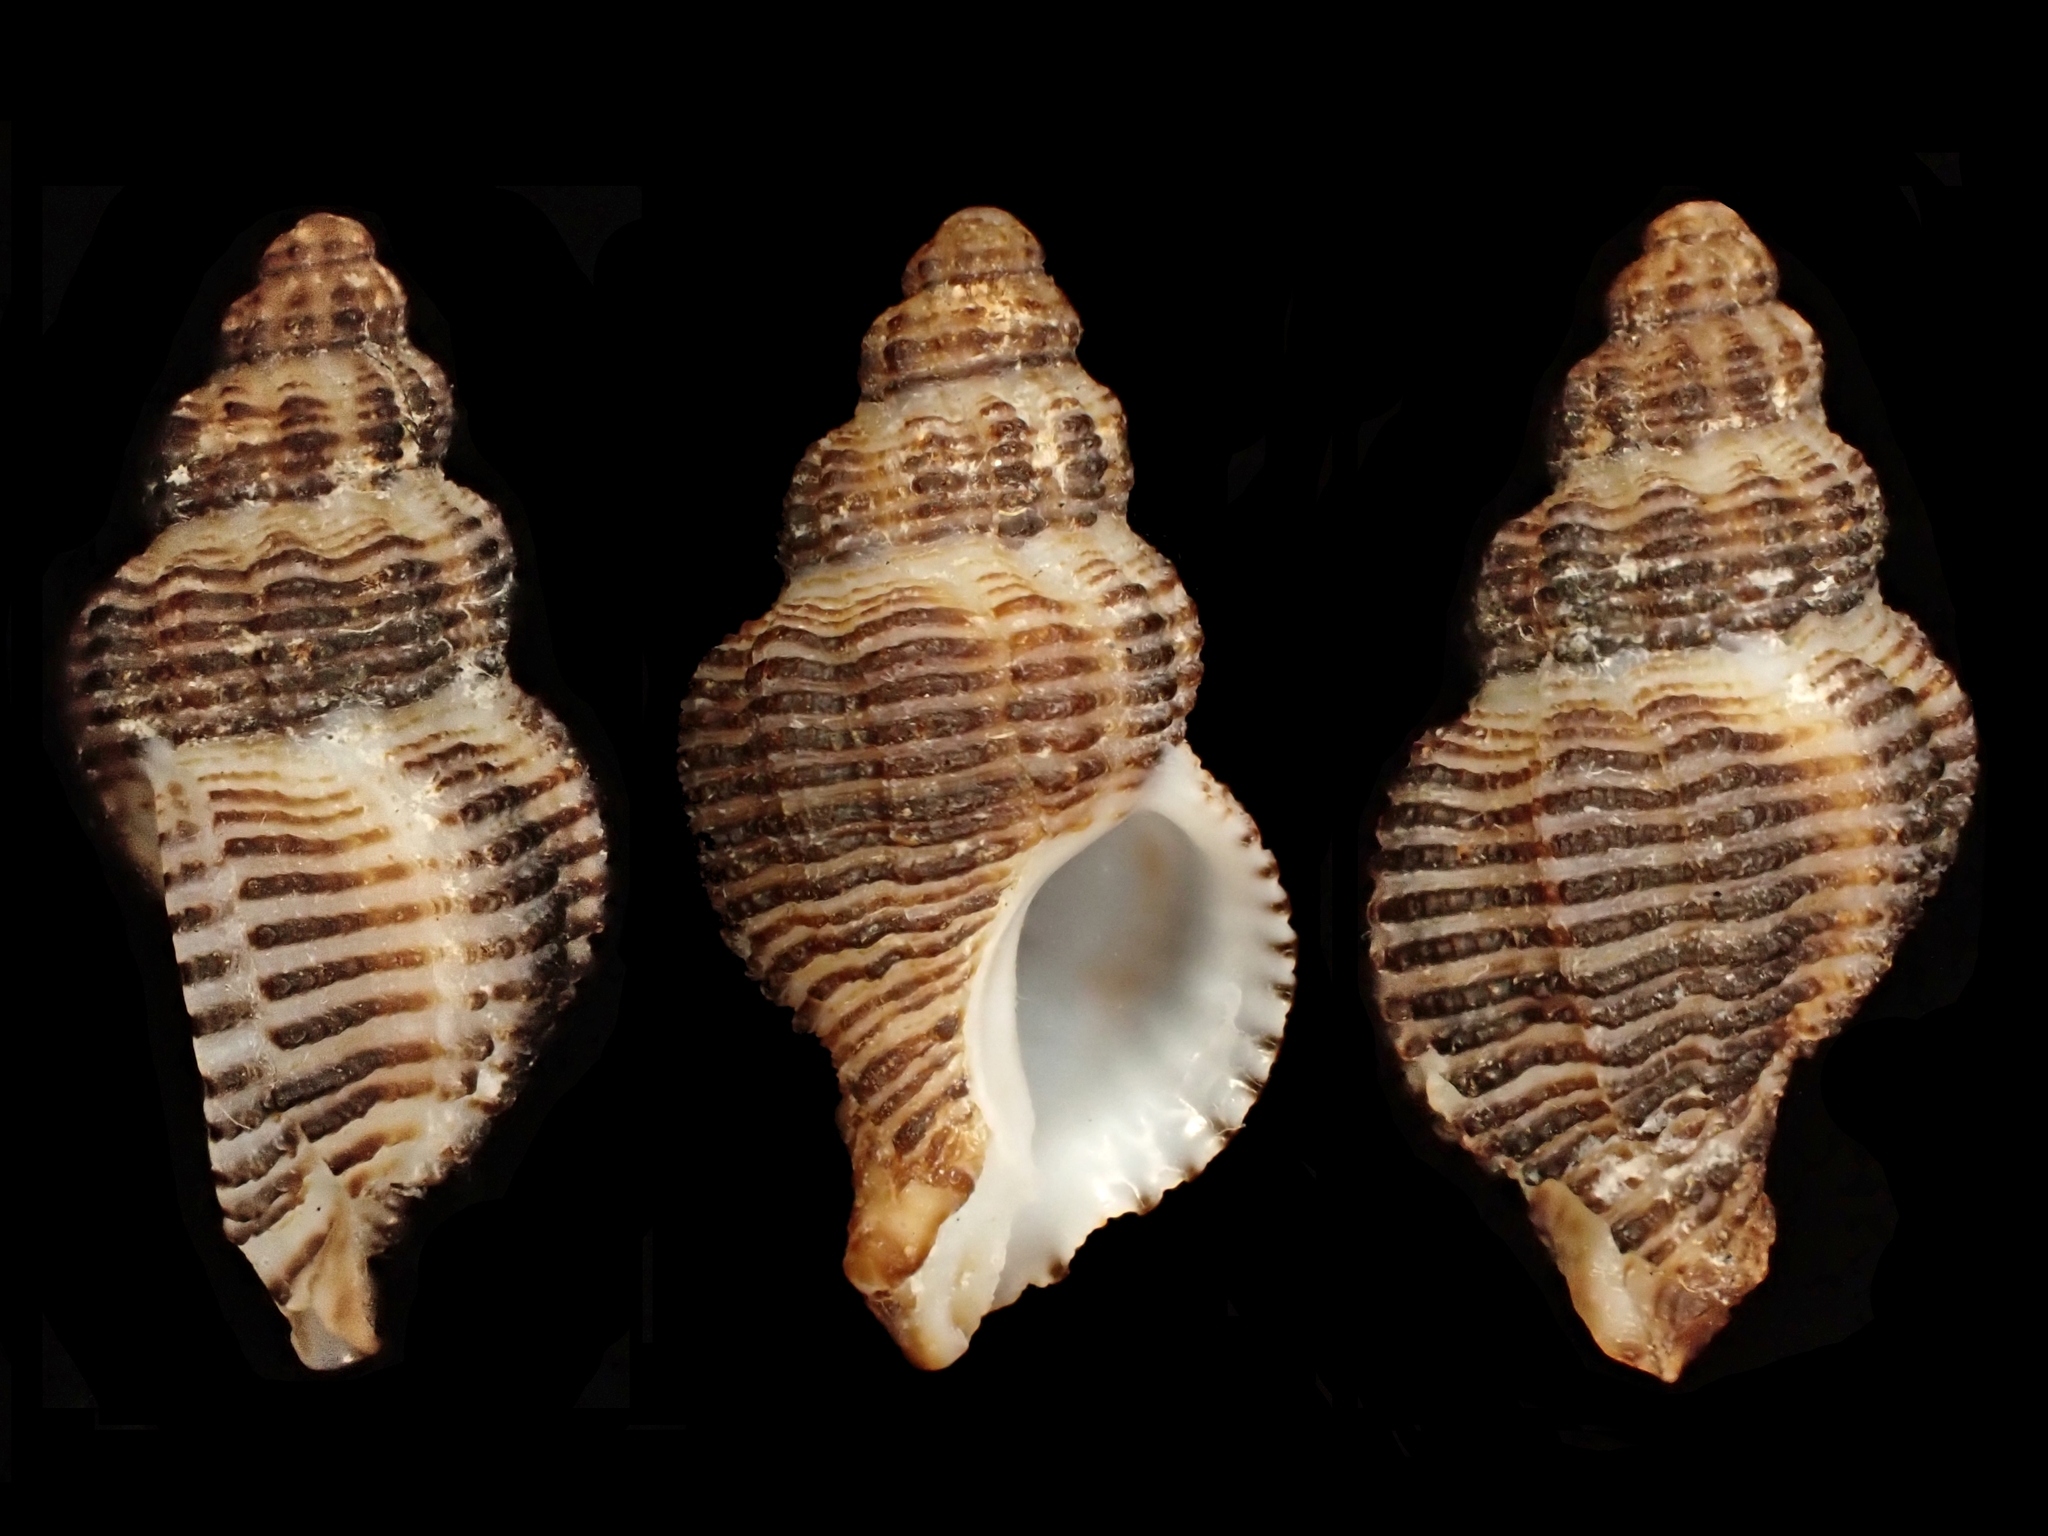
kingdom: Animalia
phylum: Mollusca
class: Gastropoda
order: Neogastropoda
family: Muricidae
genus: Murexsul
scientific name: Murexsul mariae
